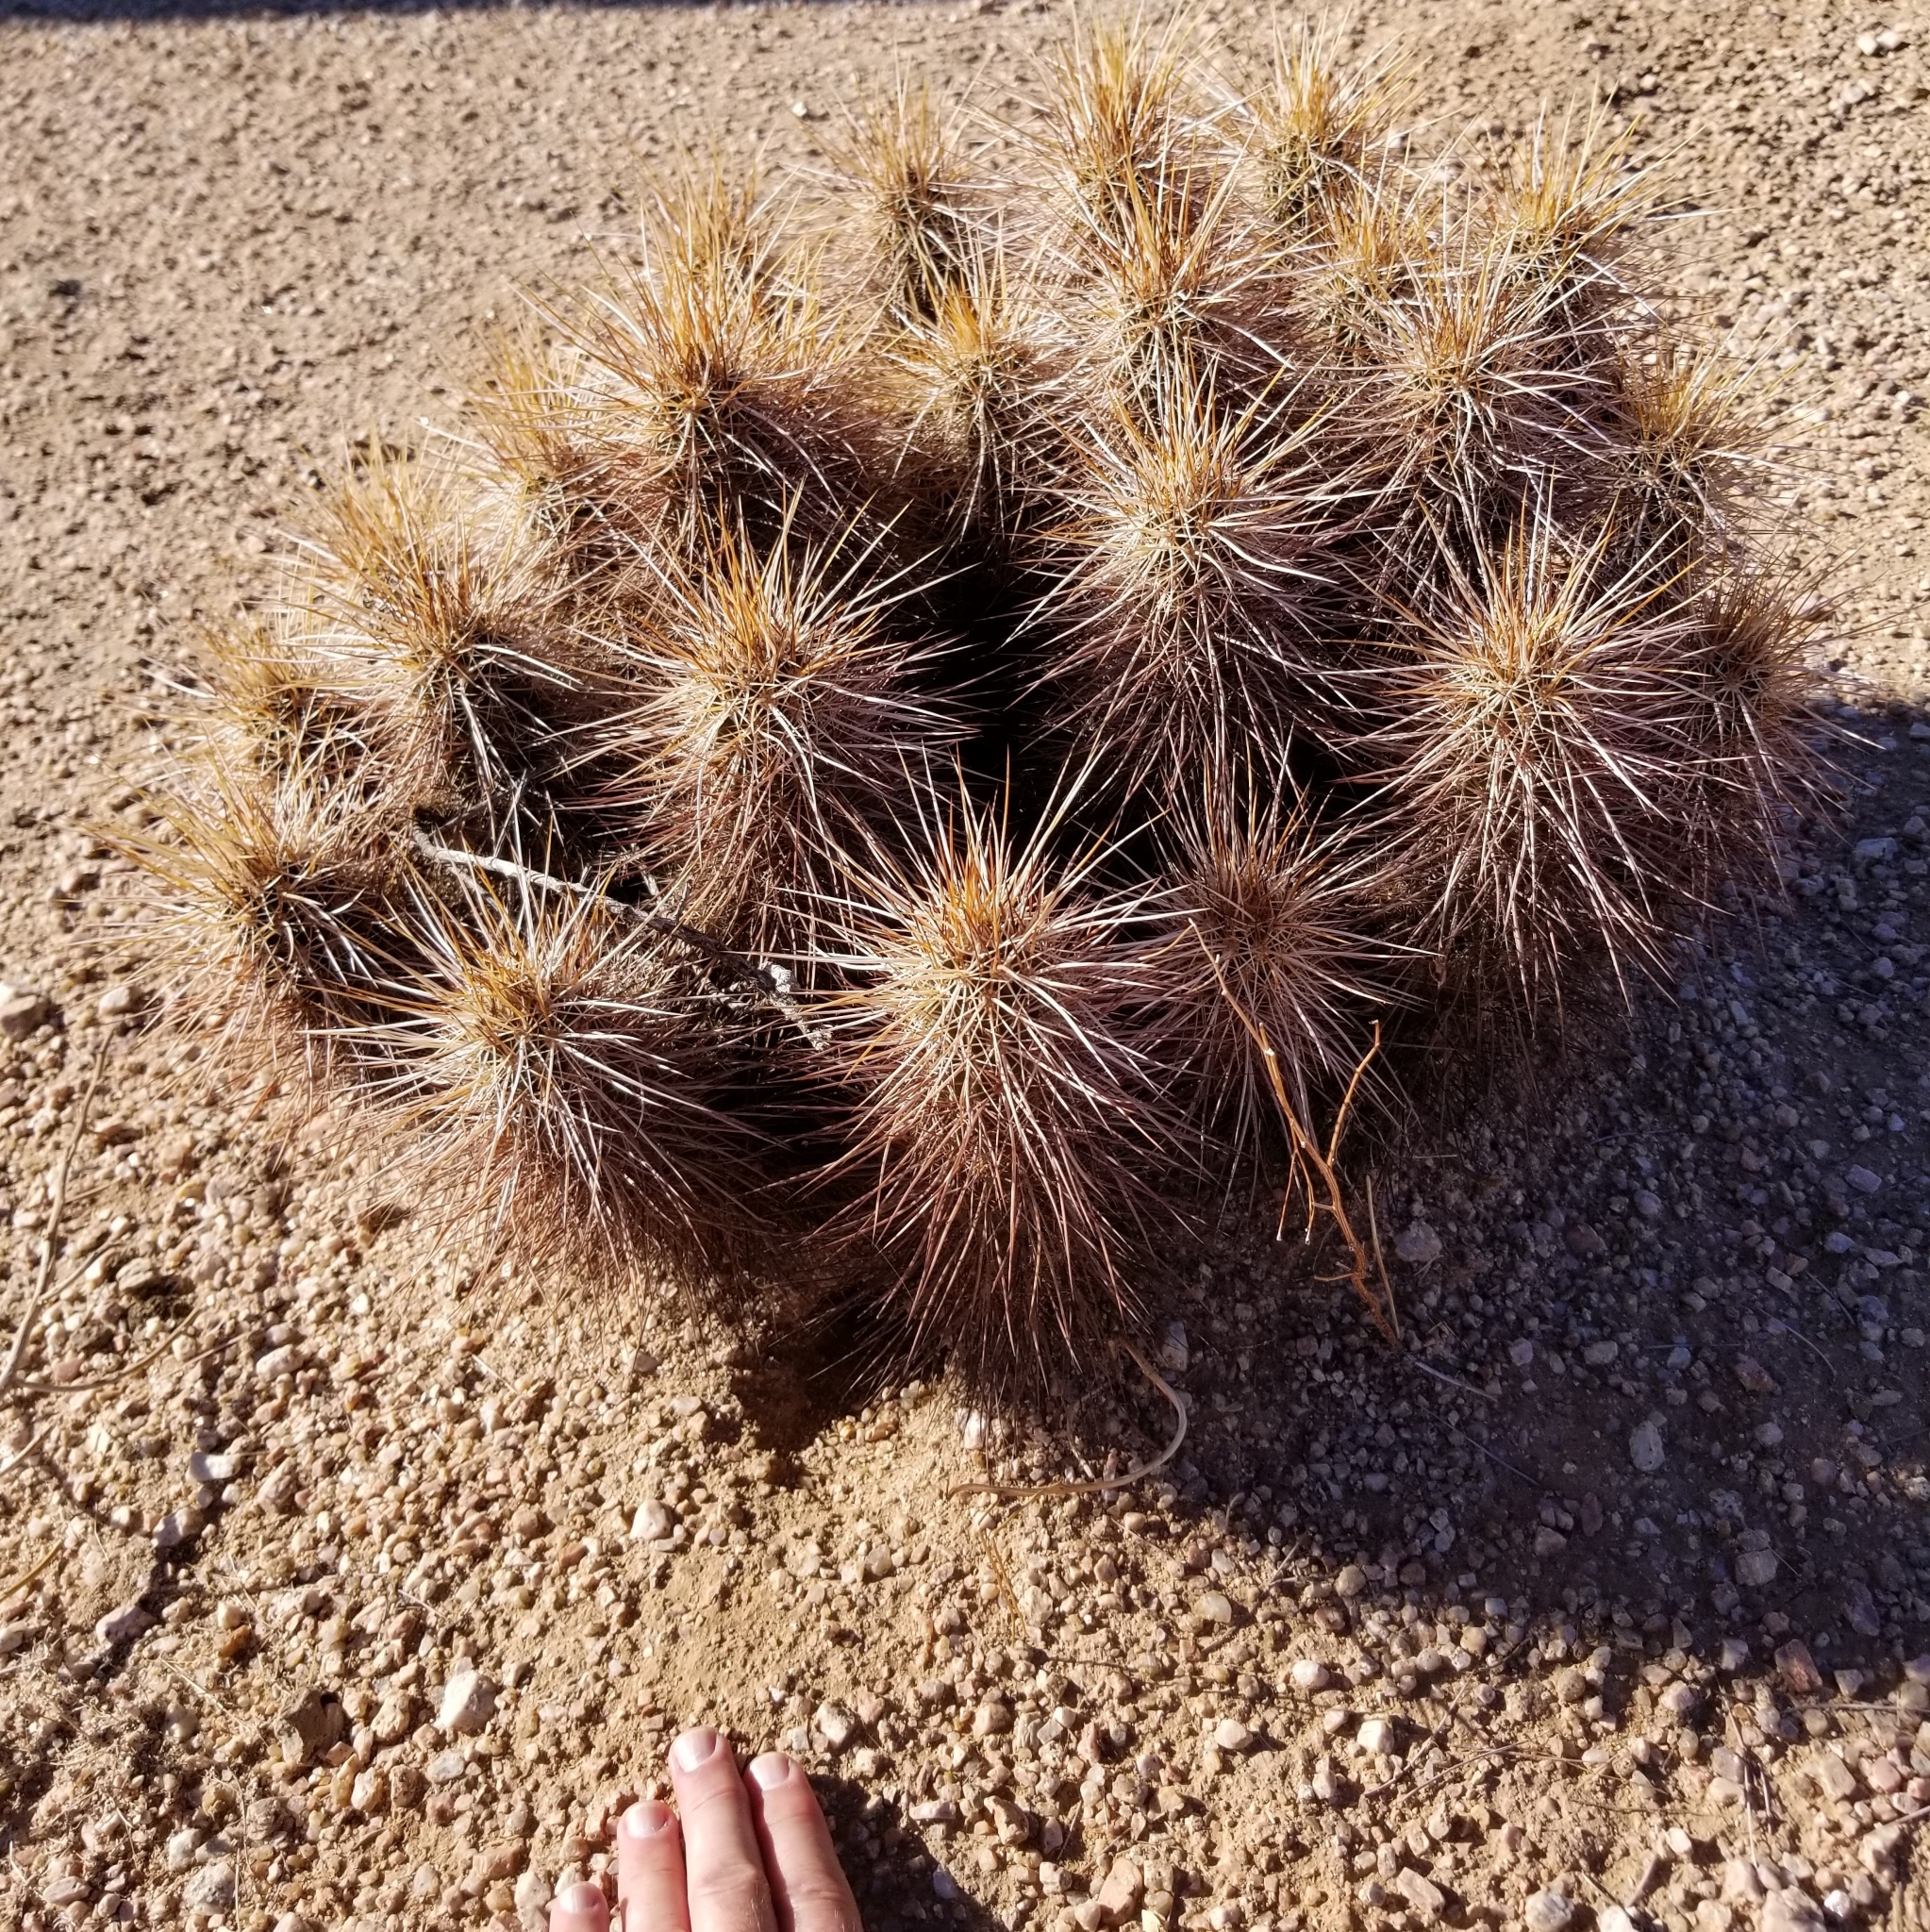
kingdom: Plantae
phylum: Tracheophyta
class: Magnoliopsida
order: Caryophyllales
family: Cactaceae
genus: Echinocereus
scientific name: Echinocereus engelmannii
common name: Engelmann's hedgehog cactus
